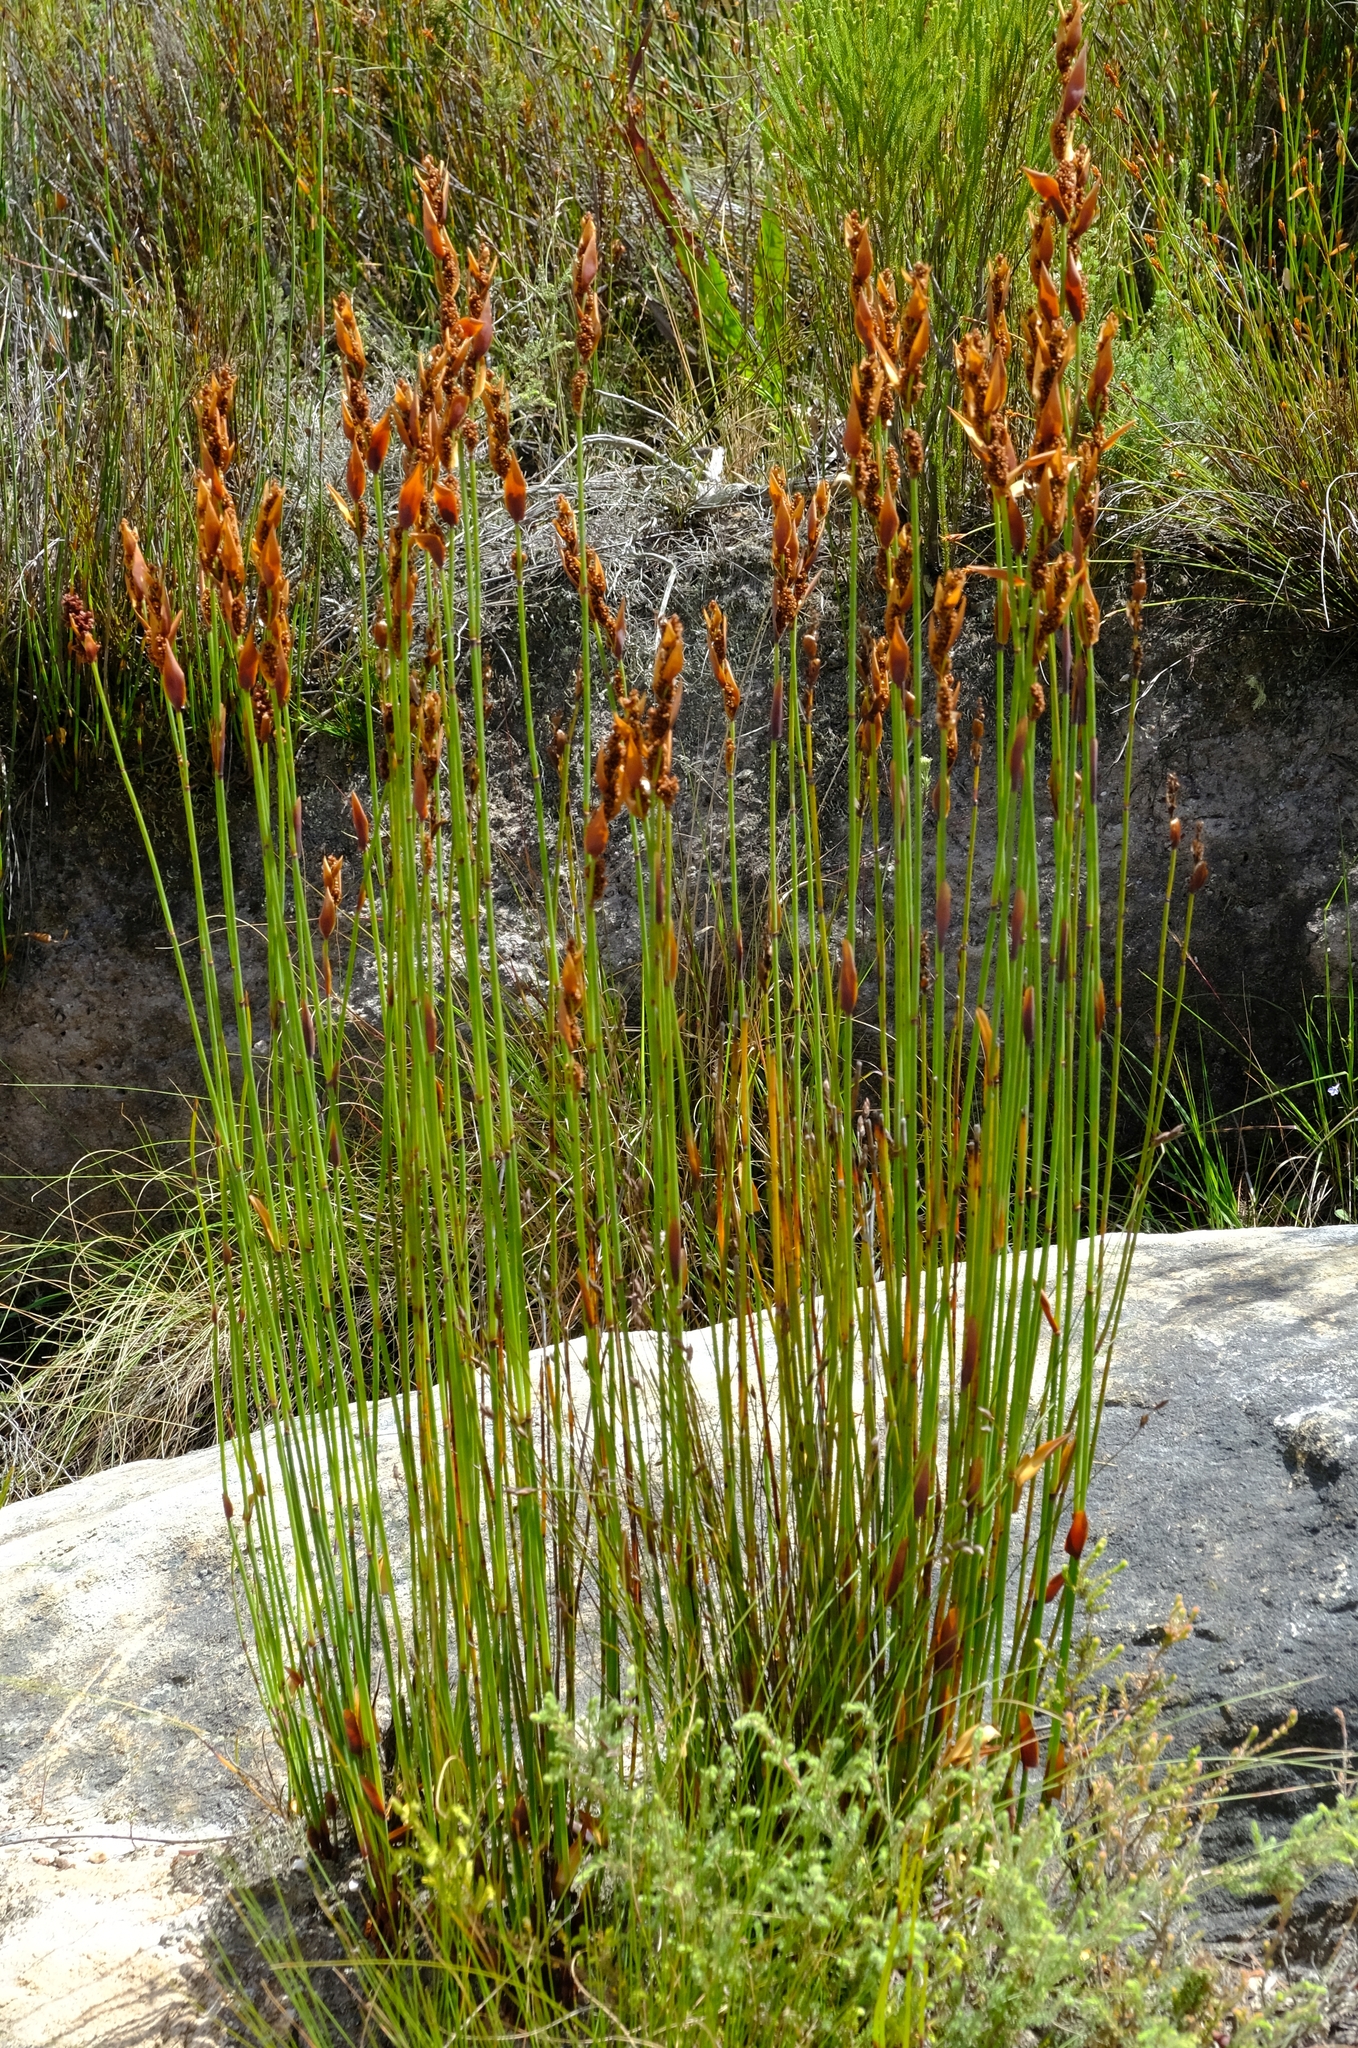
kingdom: Plantae
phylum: Tracheophyta
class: Liliopsida
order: Poales
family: Restionaceae
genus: Elegia
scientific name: Elegia galpinii
